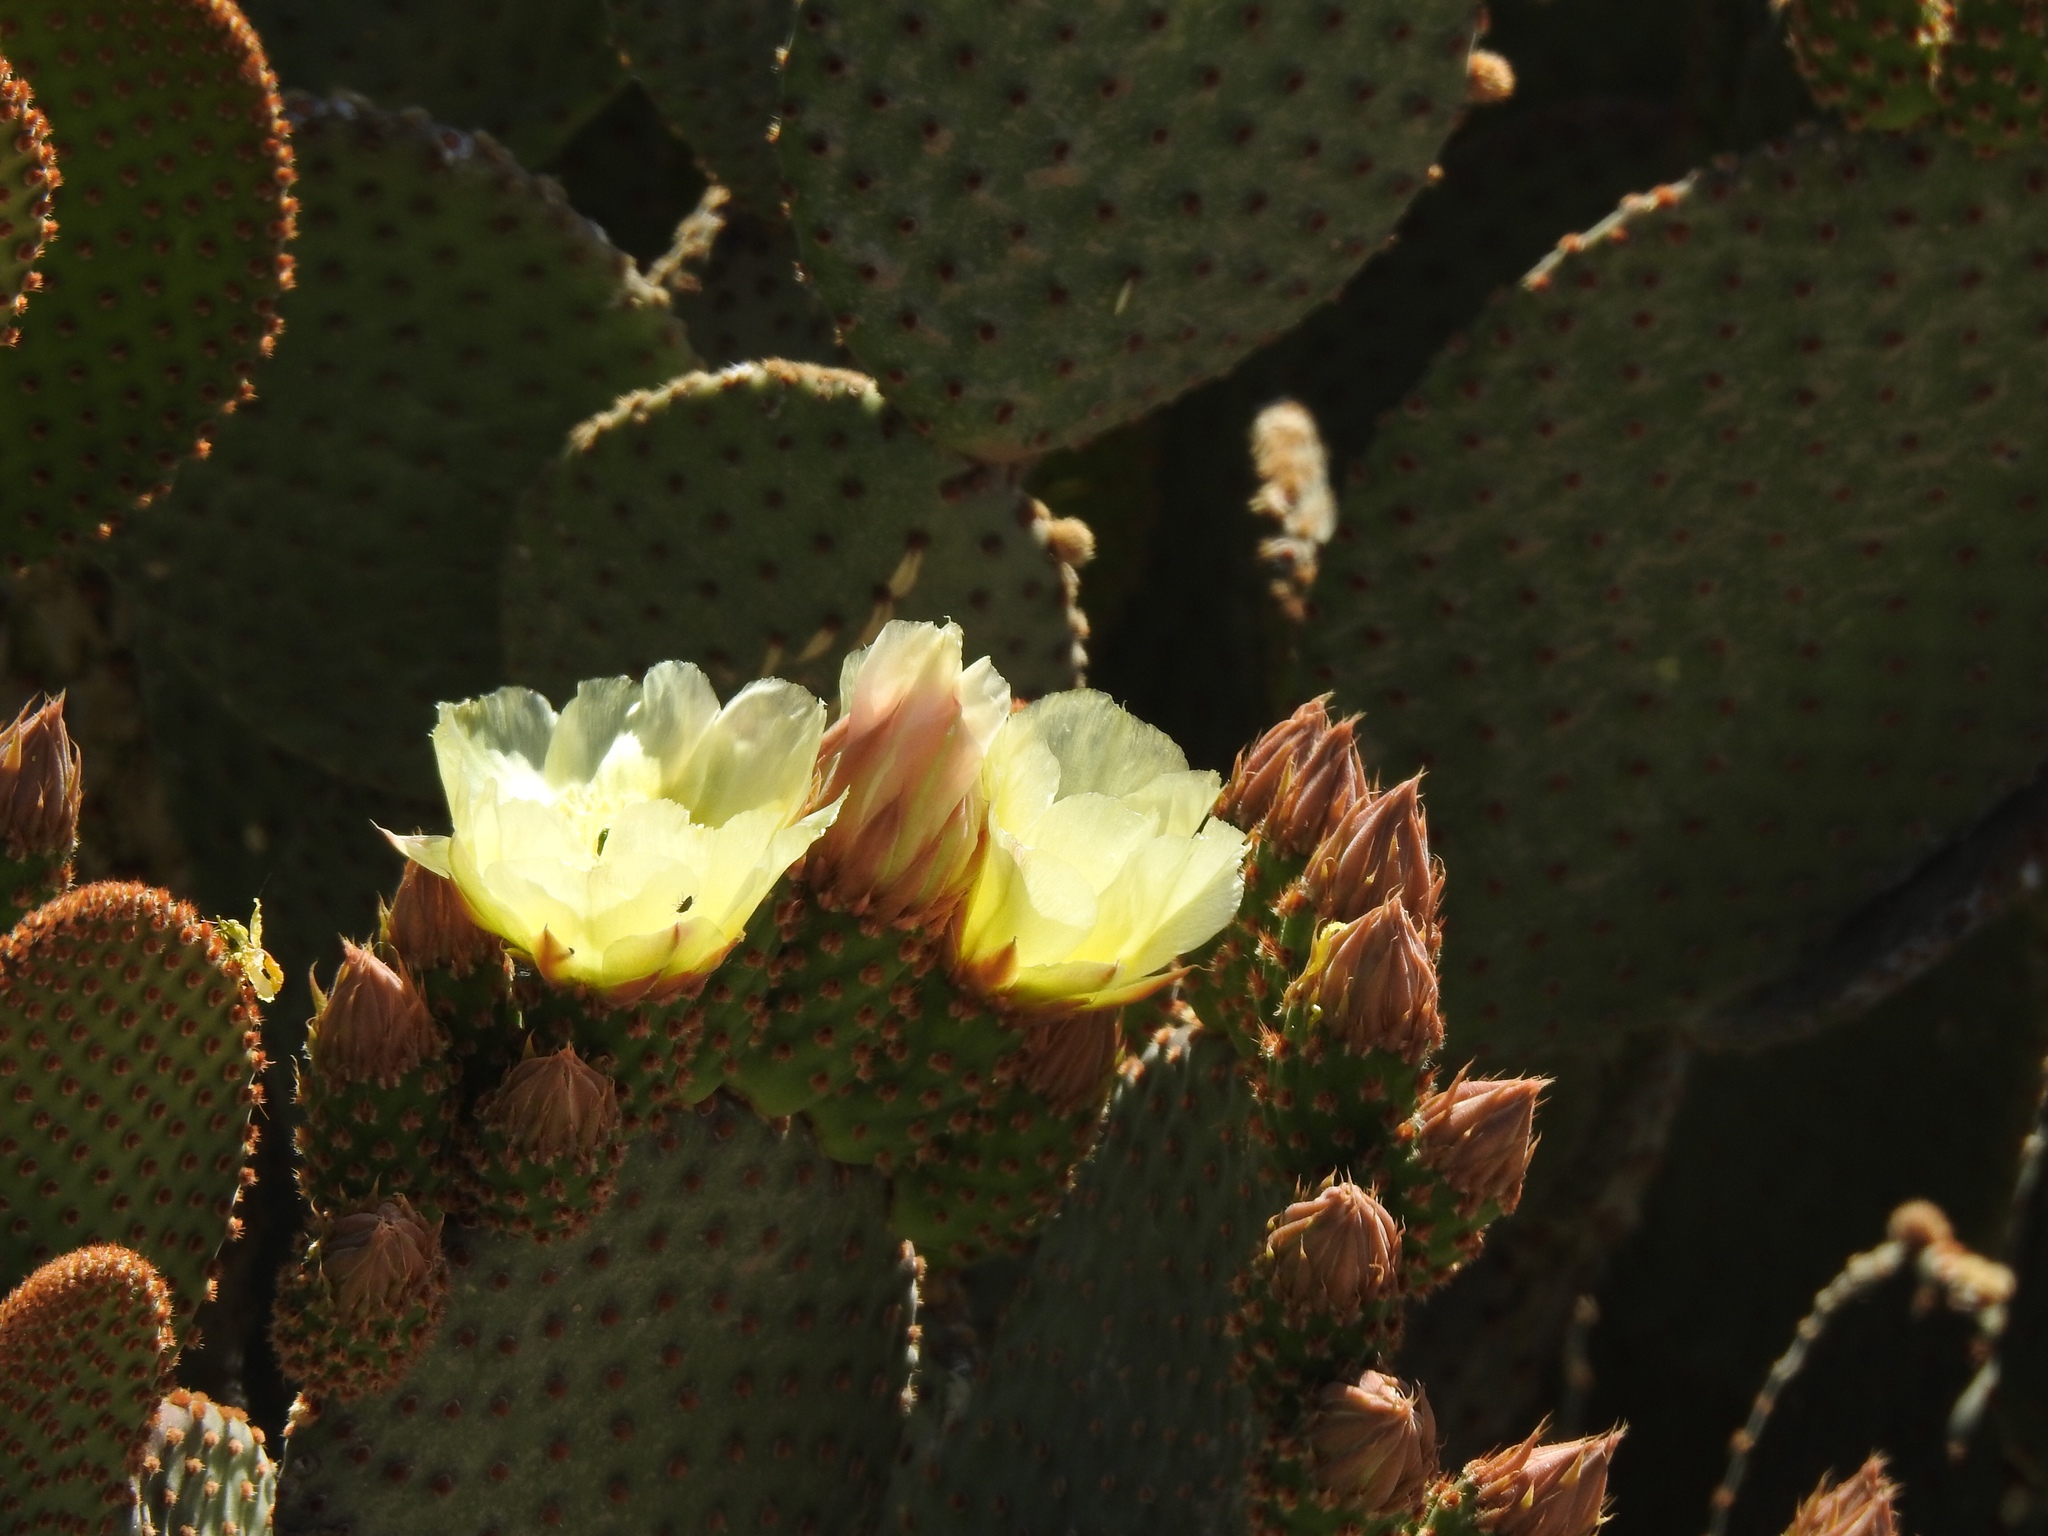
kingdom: Plantae
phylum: Tracheophyta
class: Magnoliopsida
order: Caryophyllales
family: Cactaceae
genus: Opuntia
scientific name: Opuntia microdasys
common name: Angel's-wings
